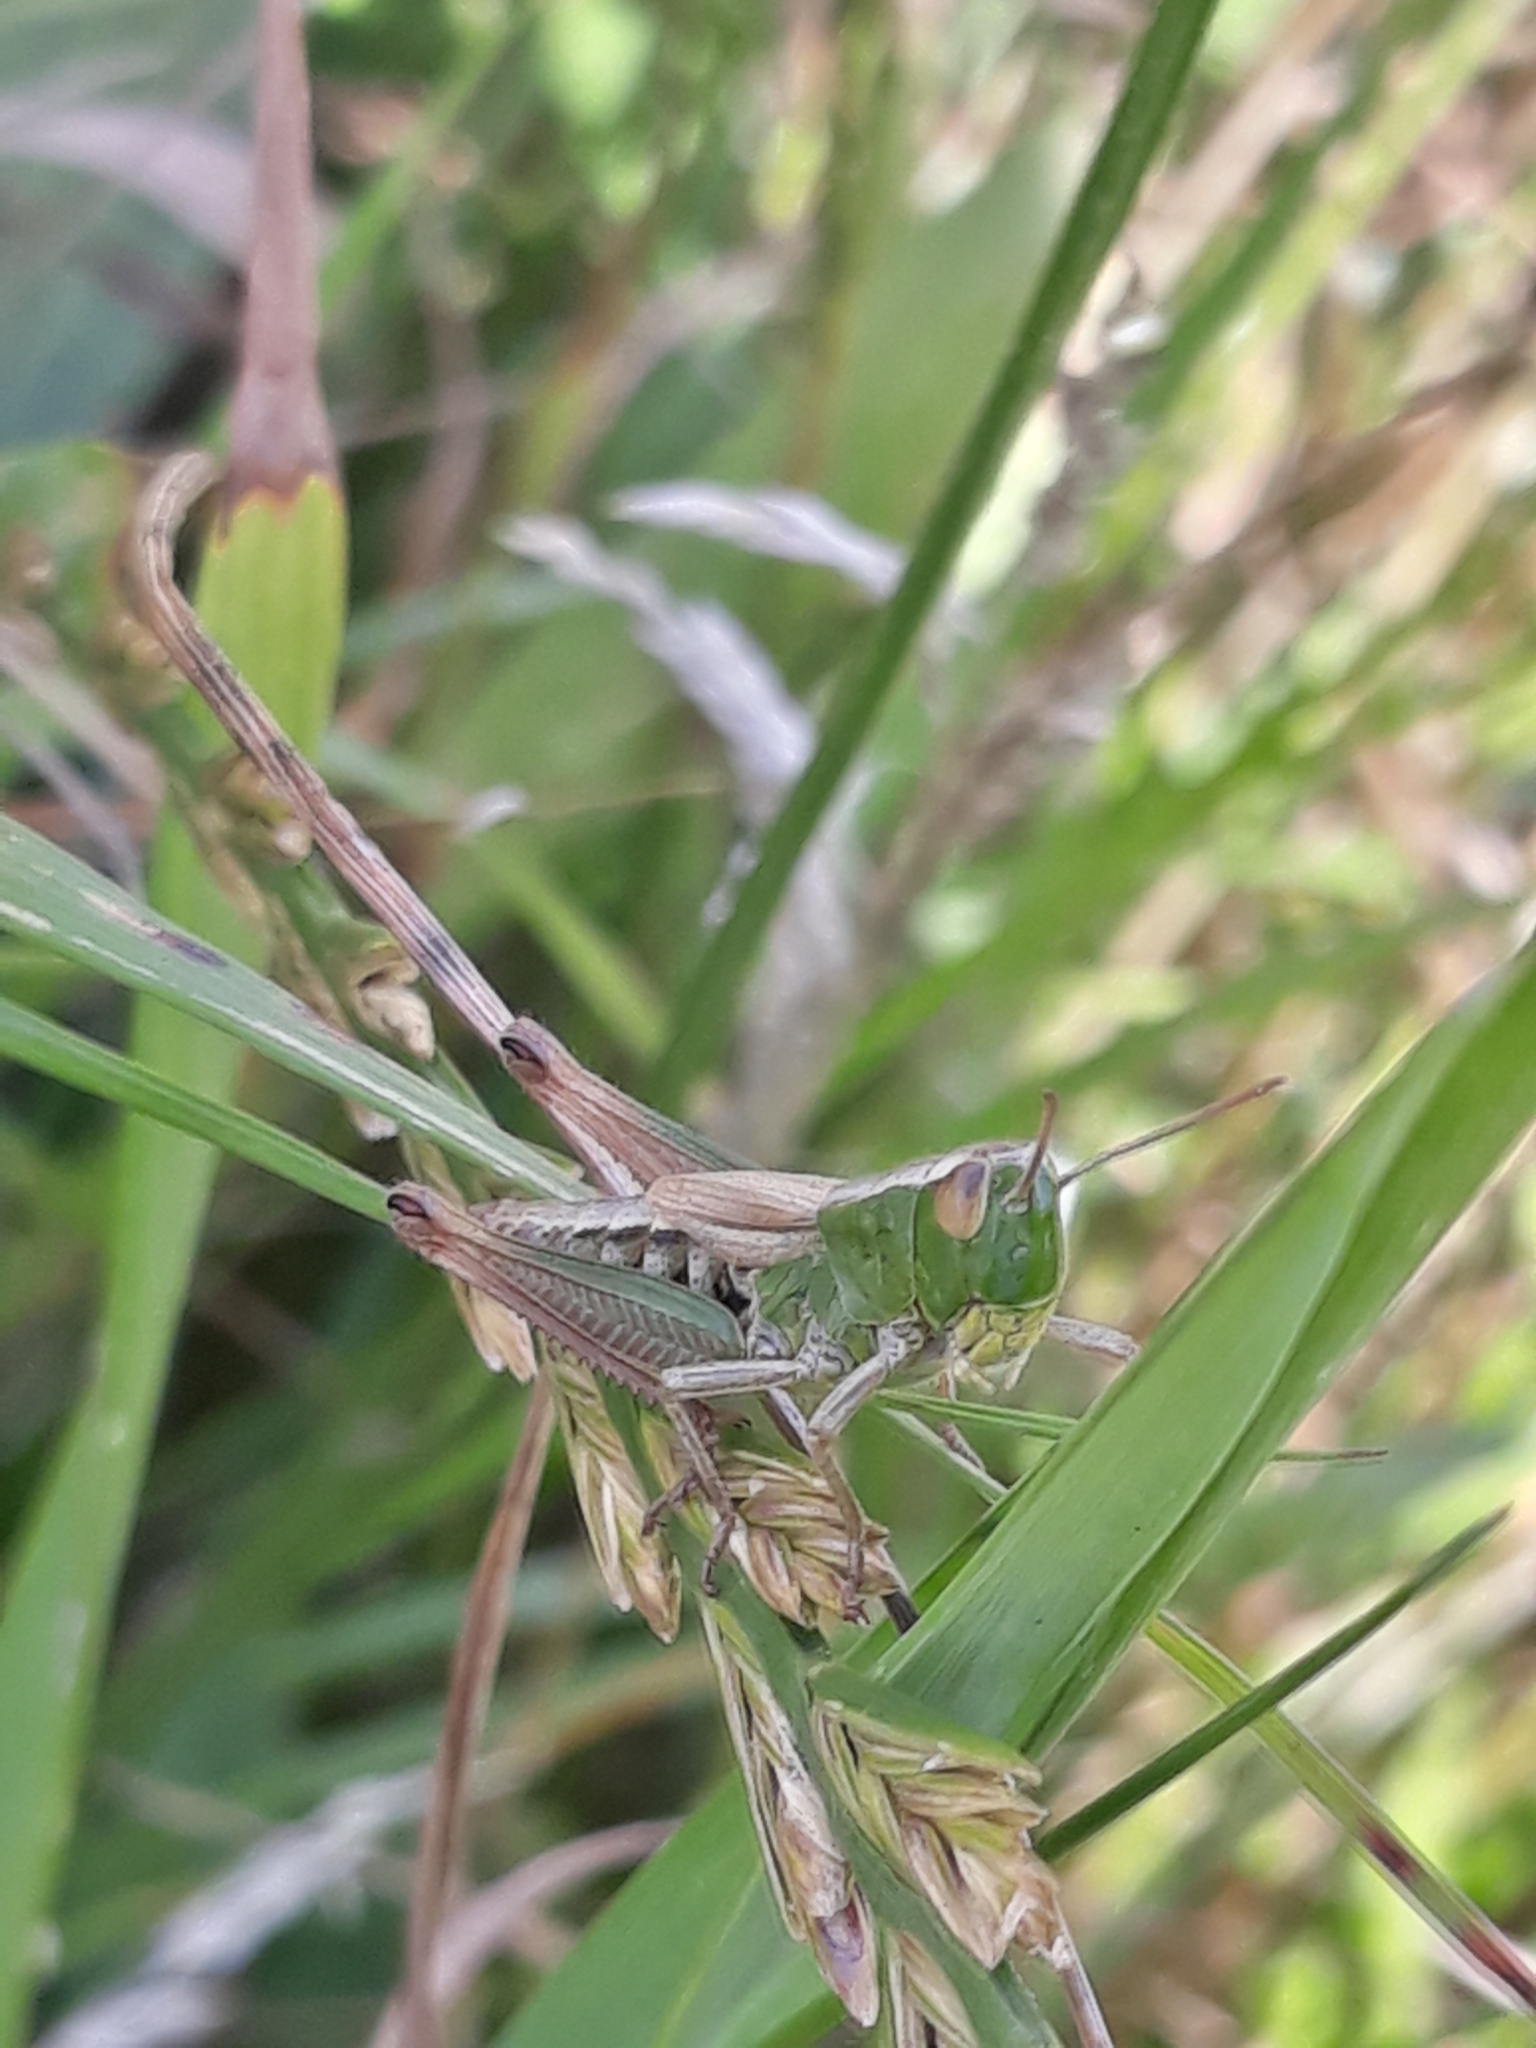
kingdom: Animalia
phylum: Arthropoda
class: Insecta
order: Orthoptera
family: Acrididae
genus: Pseudochorthippus
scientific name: Pseudochorthippus parallelus
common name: Meadow grasshopper
